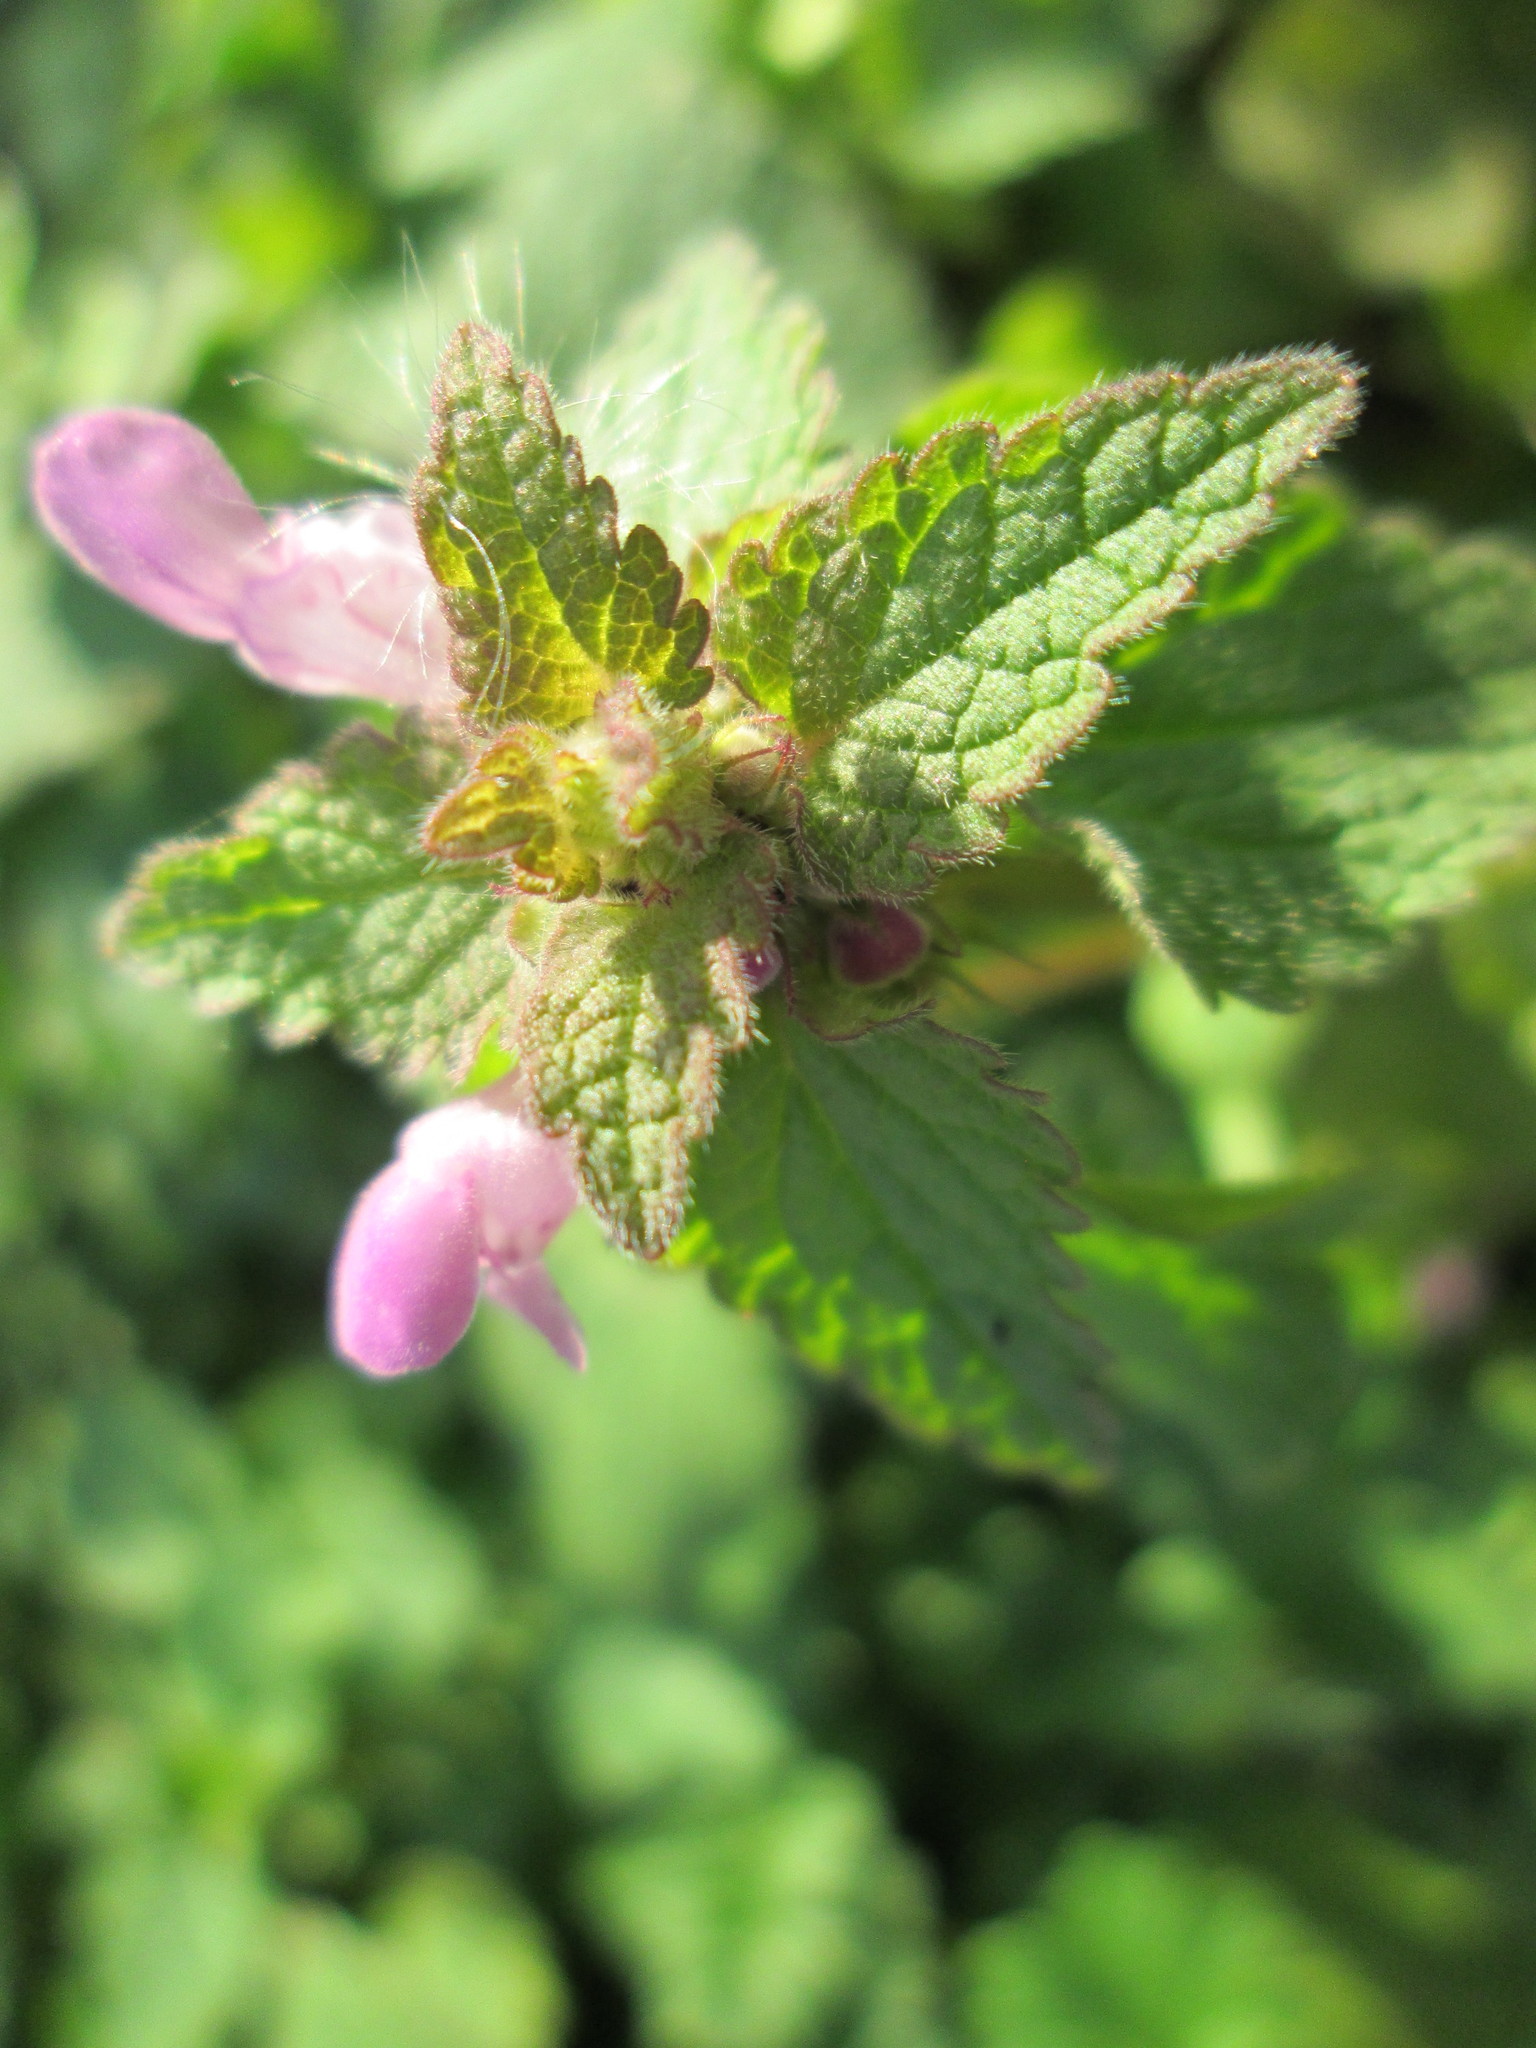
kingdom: Plantae
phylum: Tracheophyta
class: Magnoliopsida
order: Lamiales
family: Lamiaceae
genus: Lamium
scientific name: Lamium purpureum
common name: Red dead-nettle
